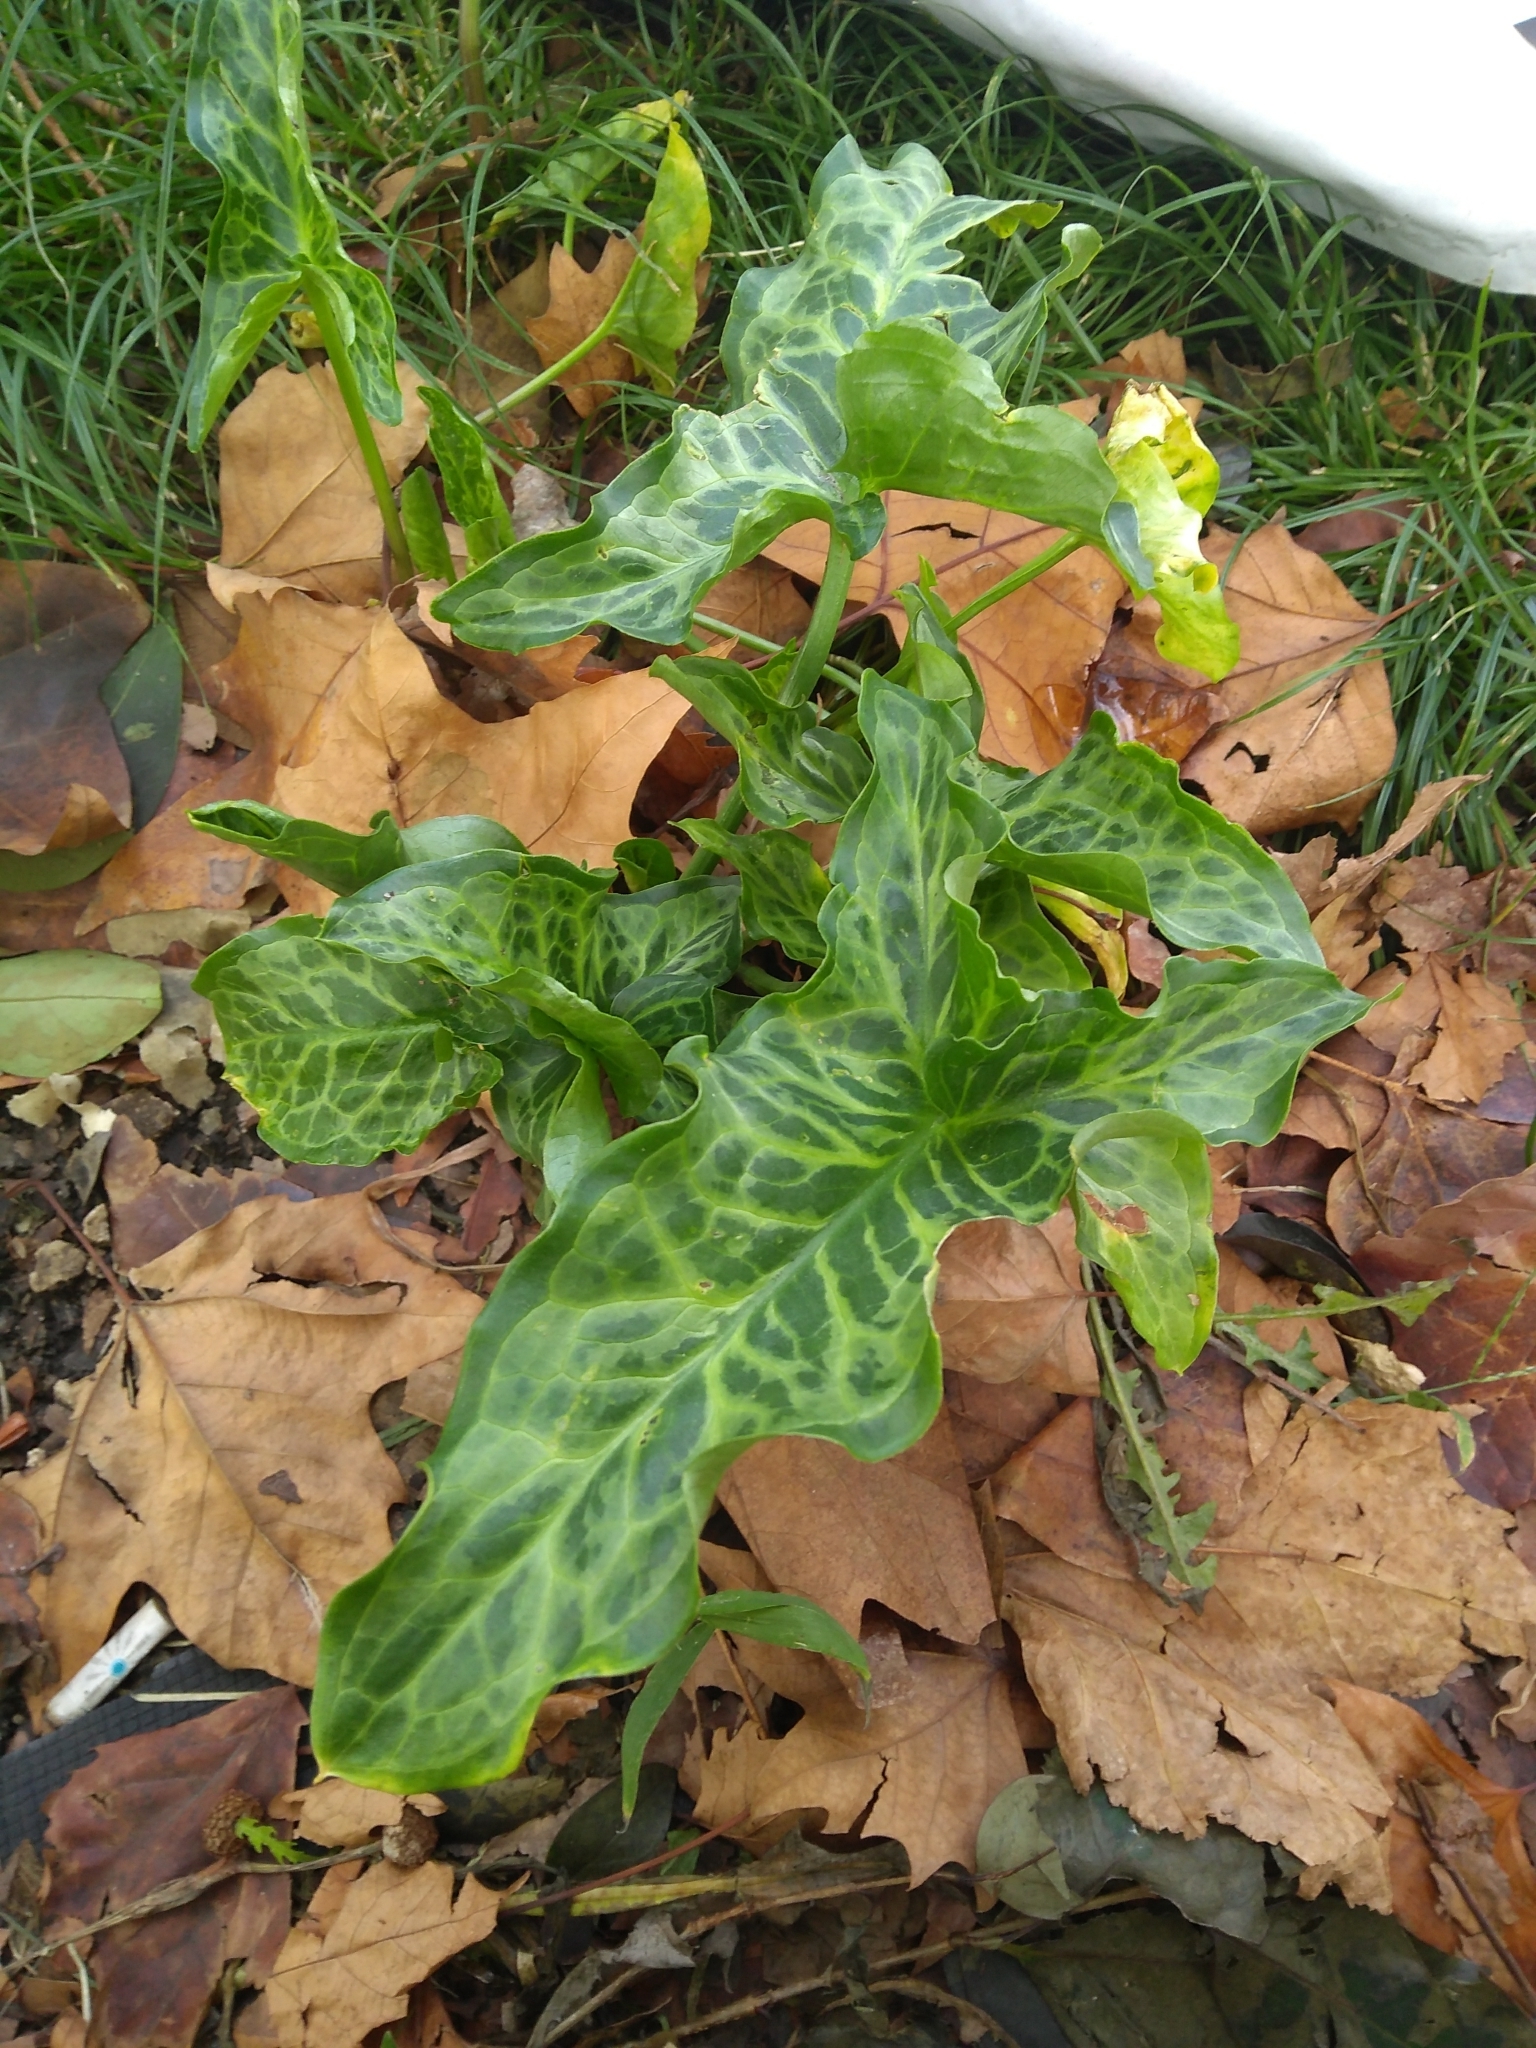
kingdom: Plantae
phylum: Tracheophyta
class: Liliopsida
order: Alismatales
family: Araceae
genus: Arum
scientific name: Arum italicum
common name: Italian lords-and-ladies
